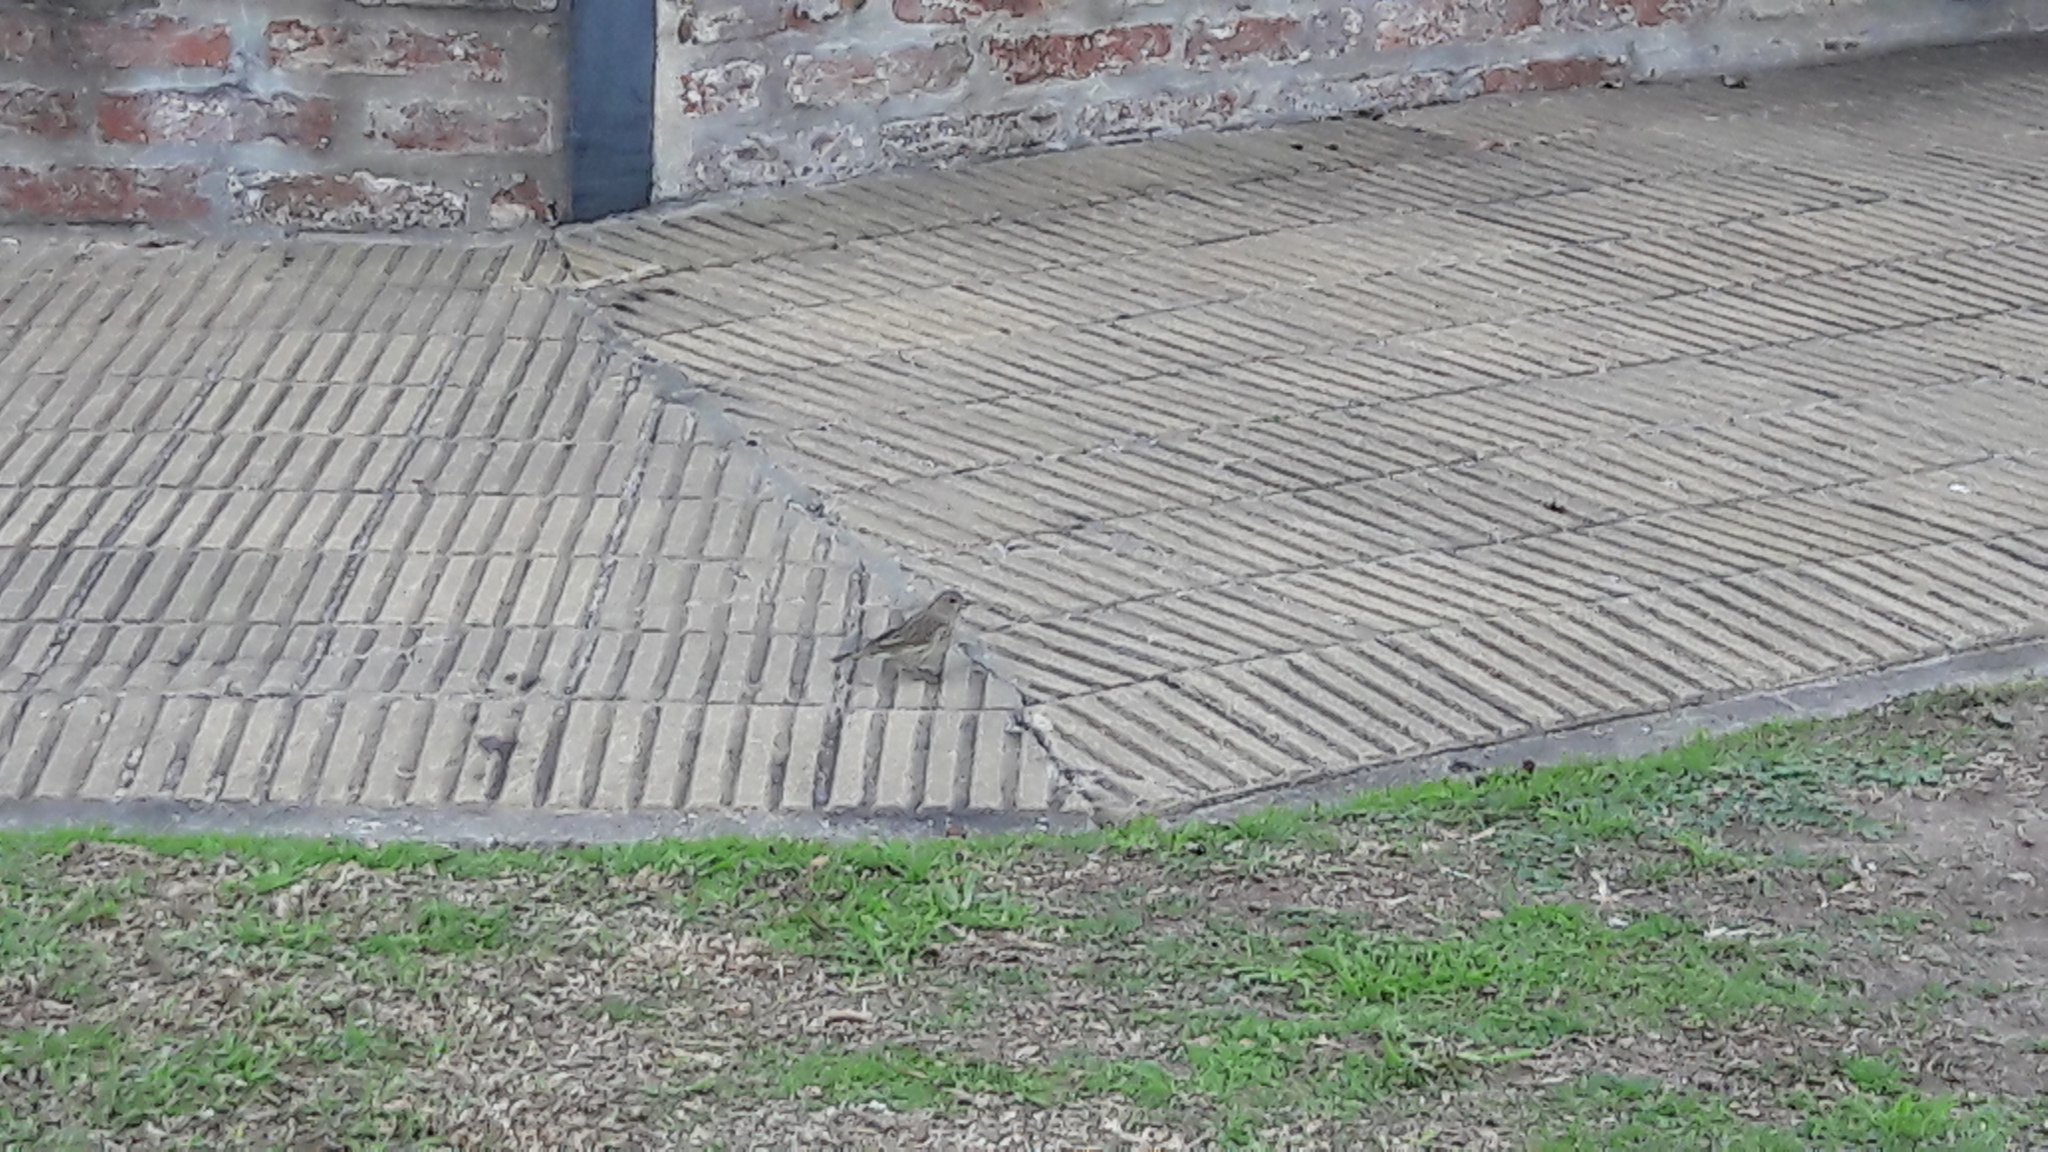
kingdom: Animalia
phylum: Chordata
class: Aves
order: Passeriformes
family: Passeridae
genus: Passer
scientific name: Passer domesticus
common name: House sparrow
